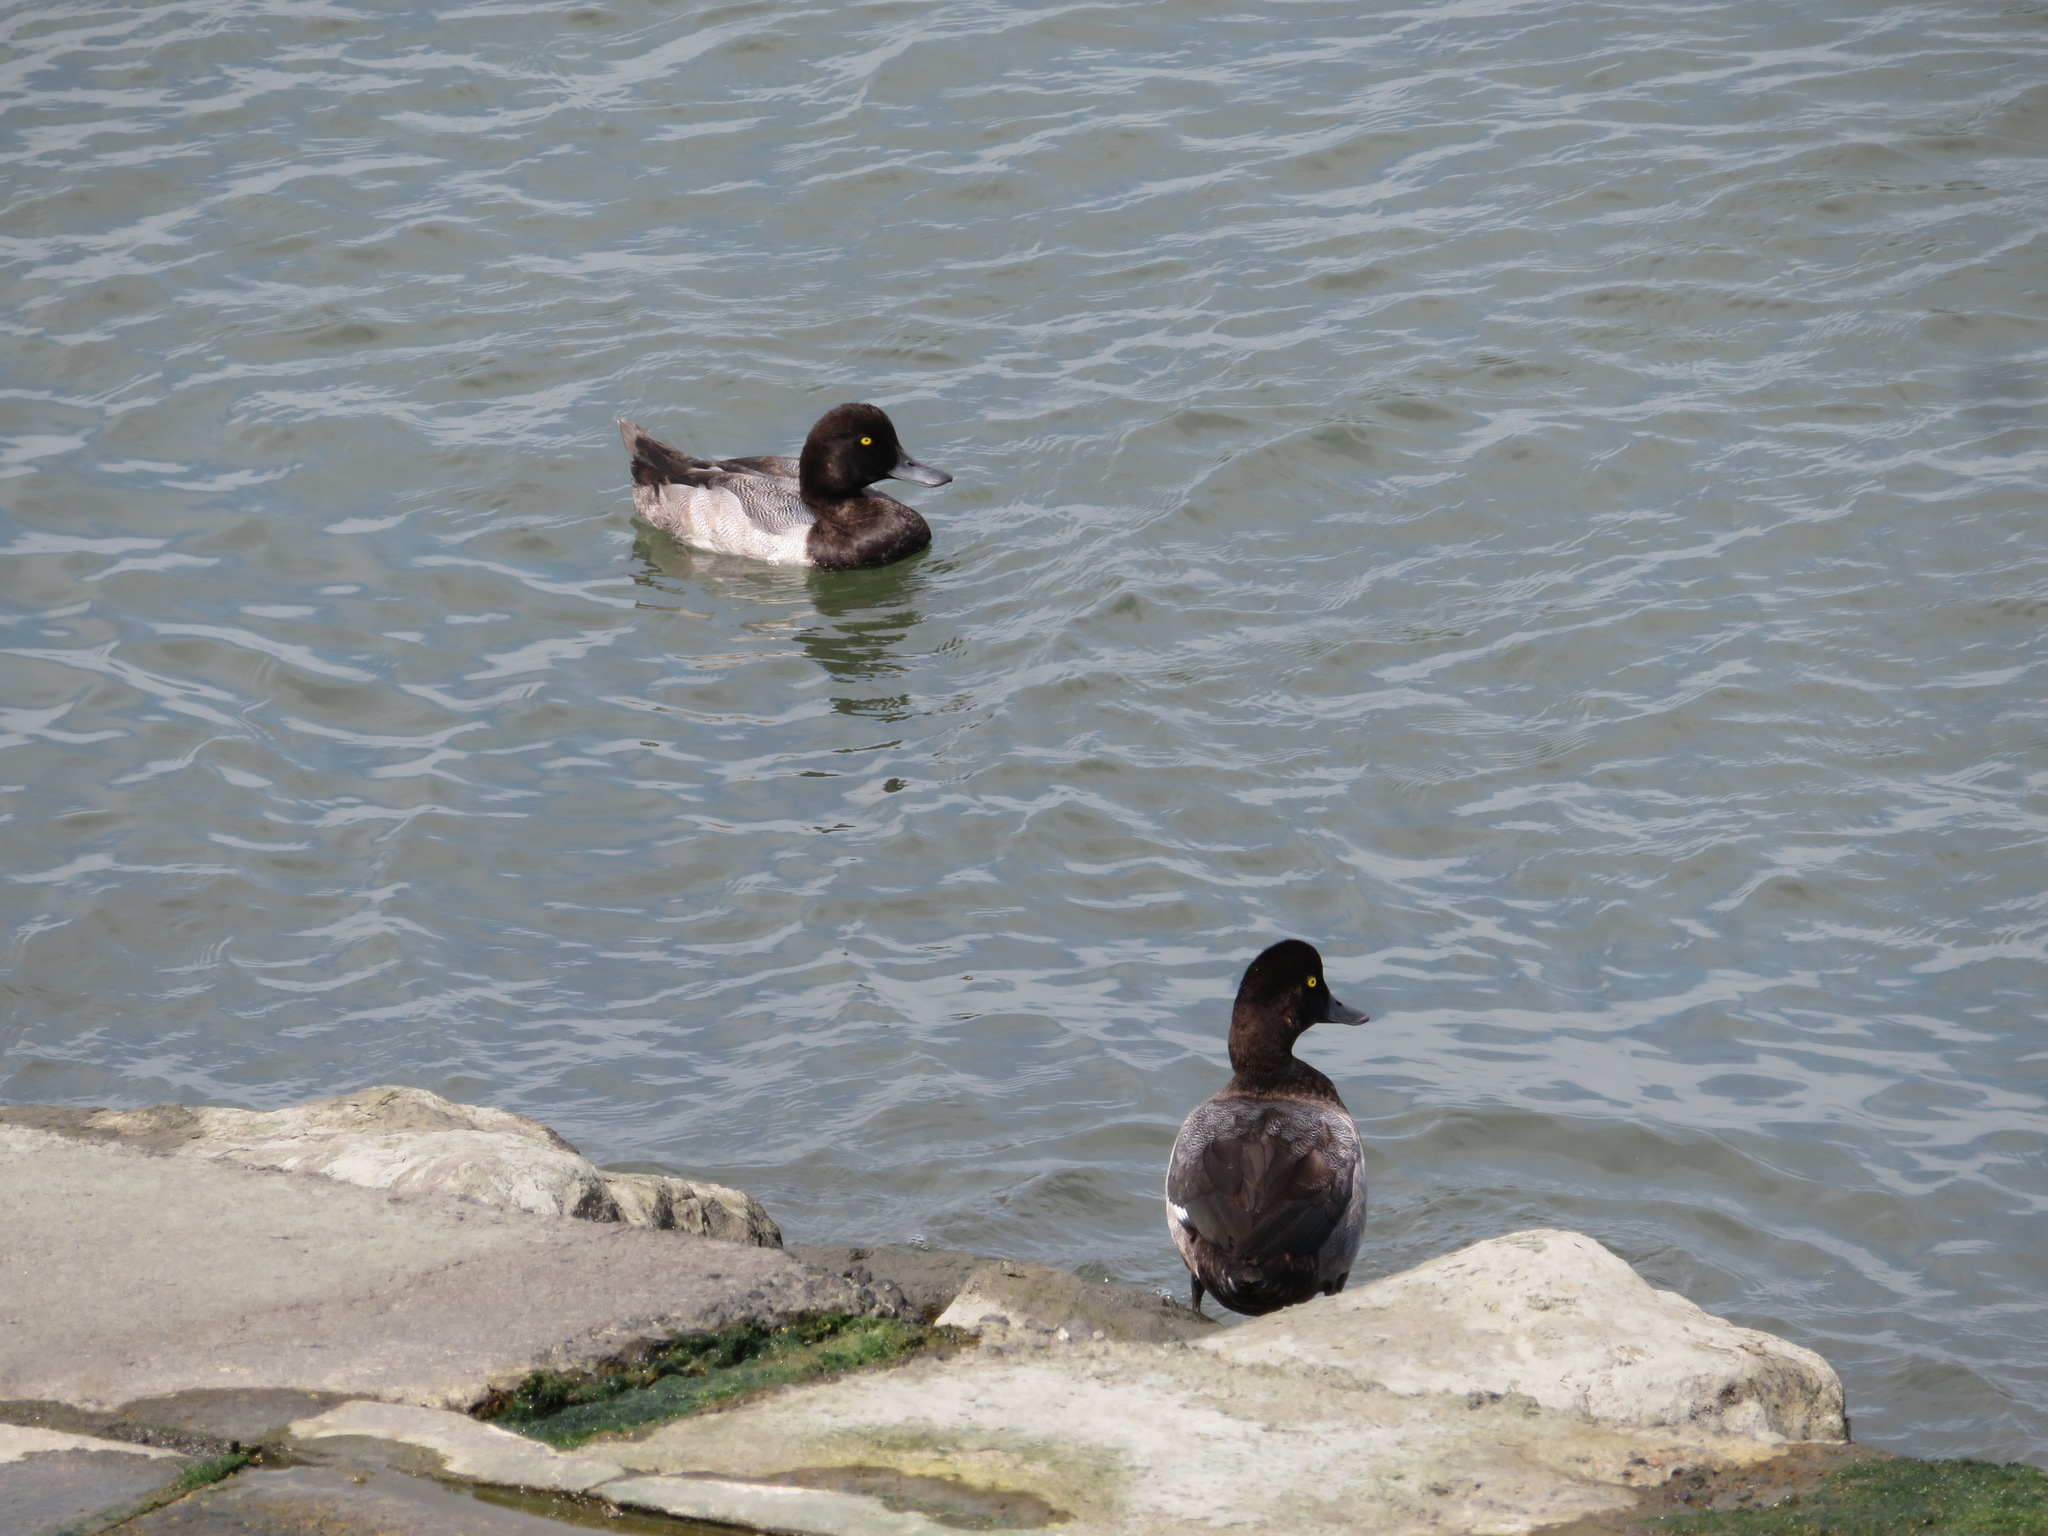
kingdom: Animalia
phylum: Chordata
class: Aves
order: Anseriformes
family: Anatidae
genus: Aythya
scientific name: Aythya marila
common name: Greater scaup
